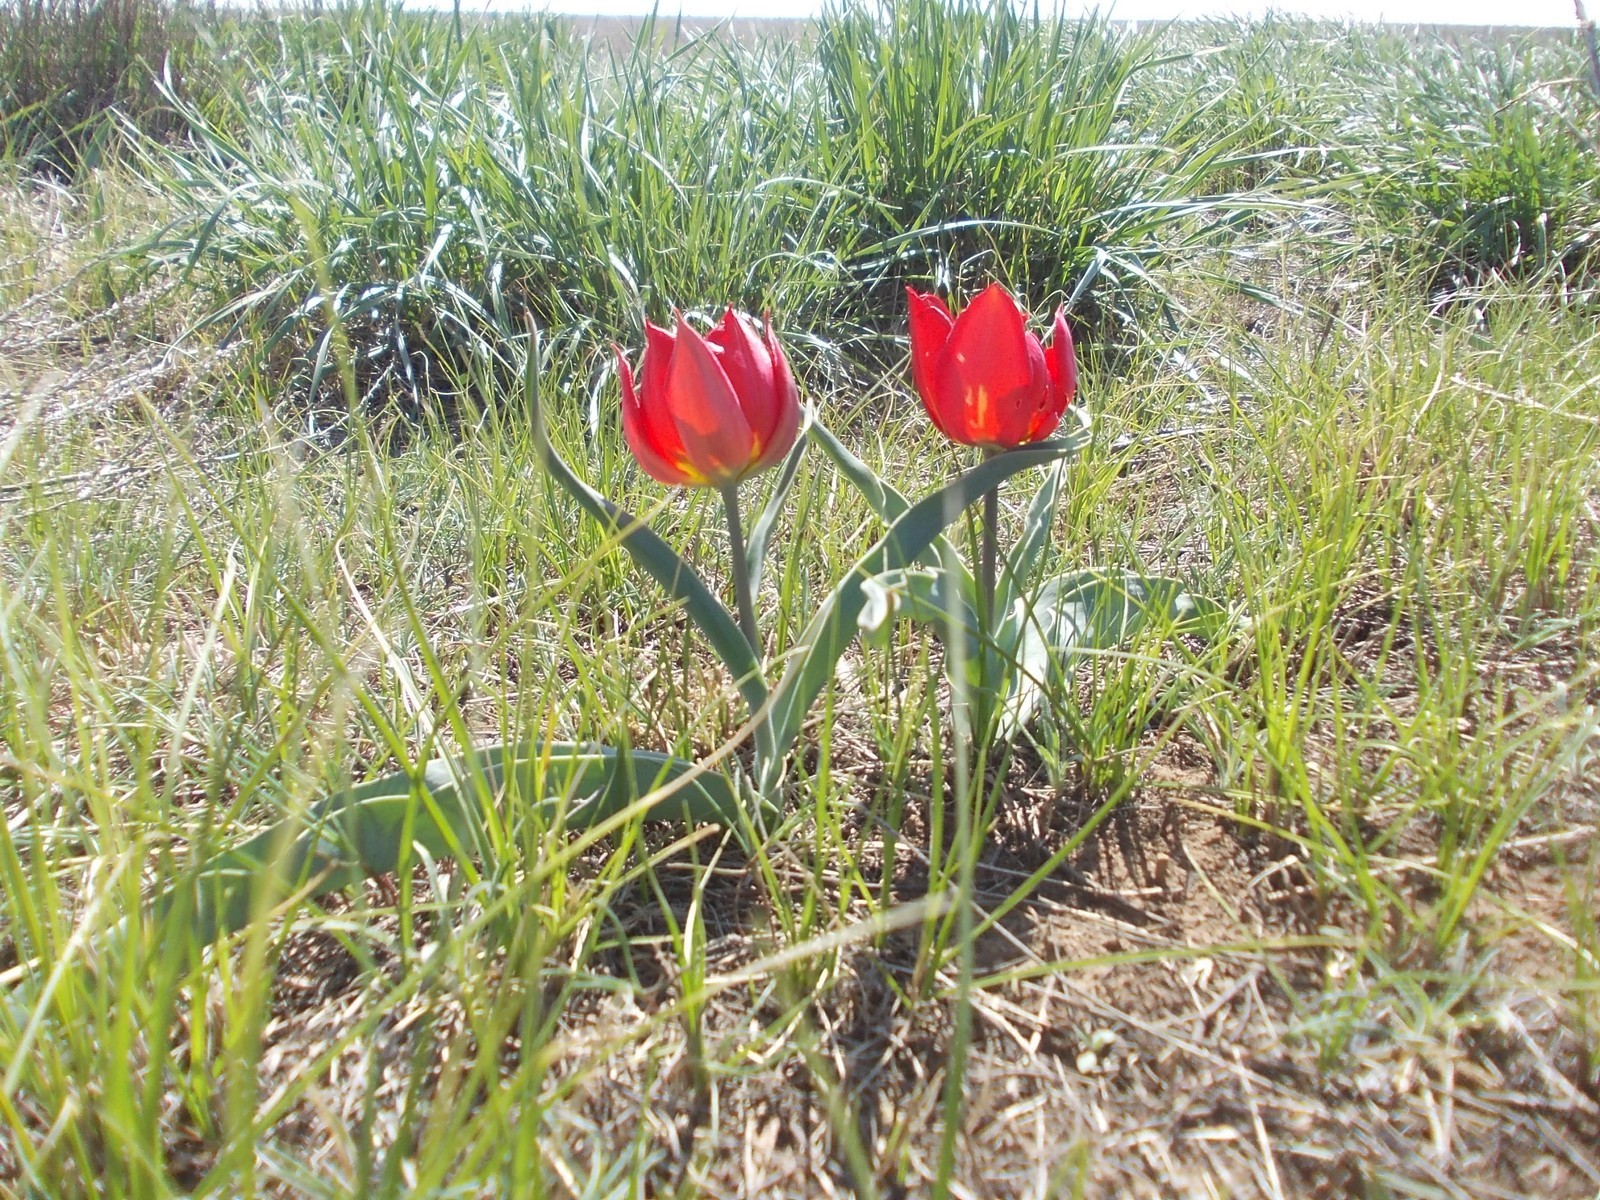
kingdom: Plantae
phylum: Tracheophyta
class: Liliopsida
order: Liliales
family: Liliaceae
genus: Tulipa
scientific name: Tulipa suaveolens
